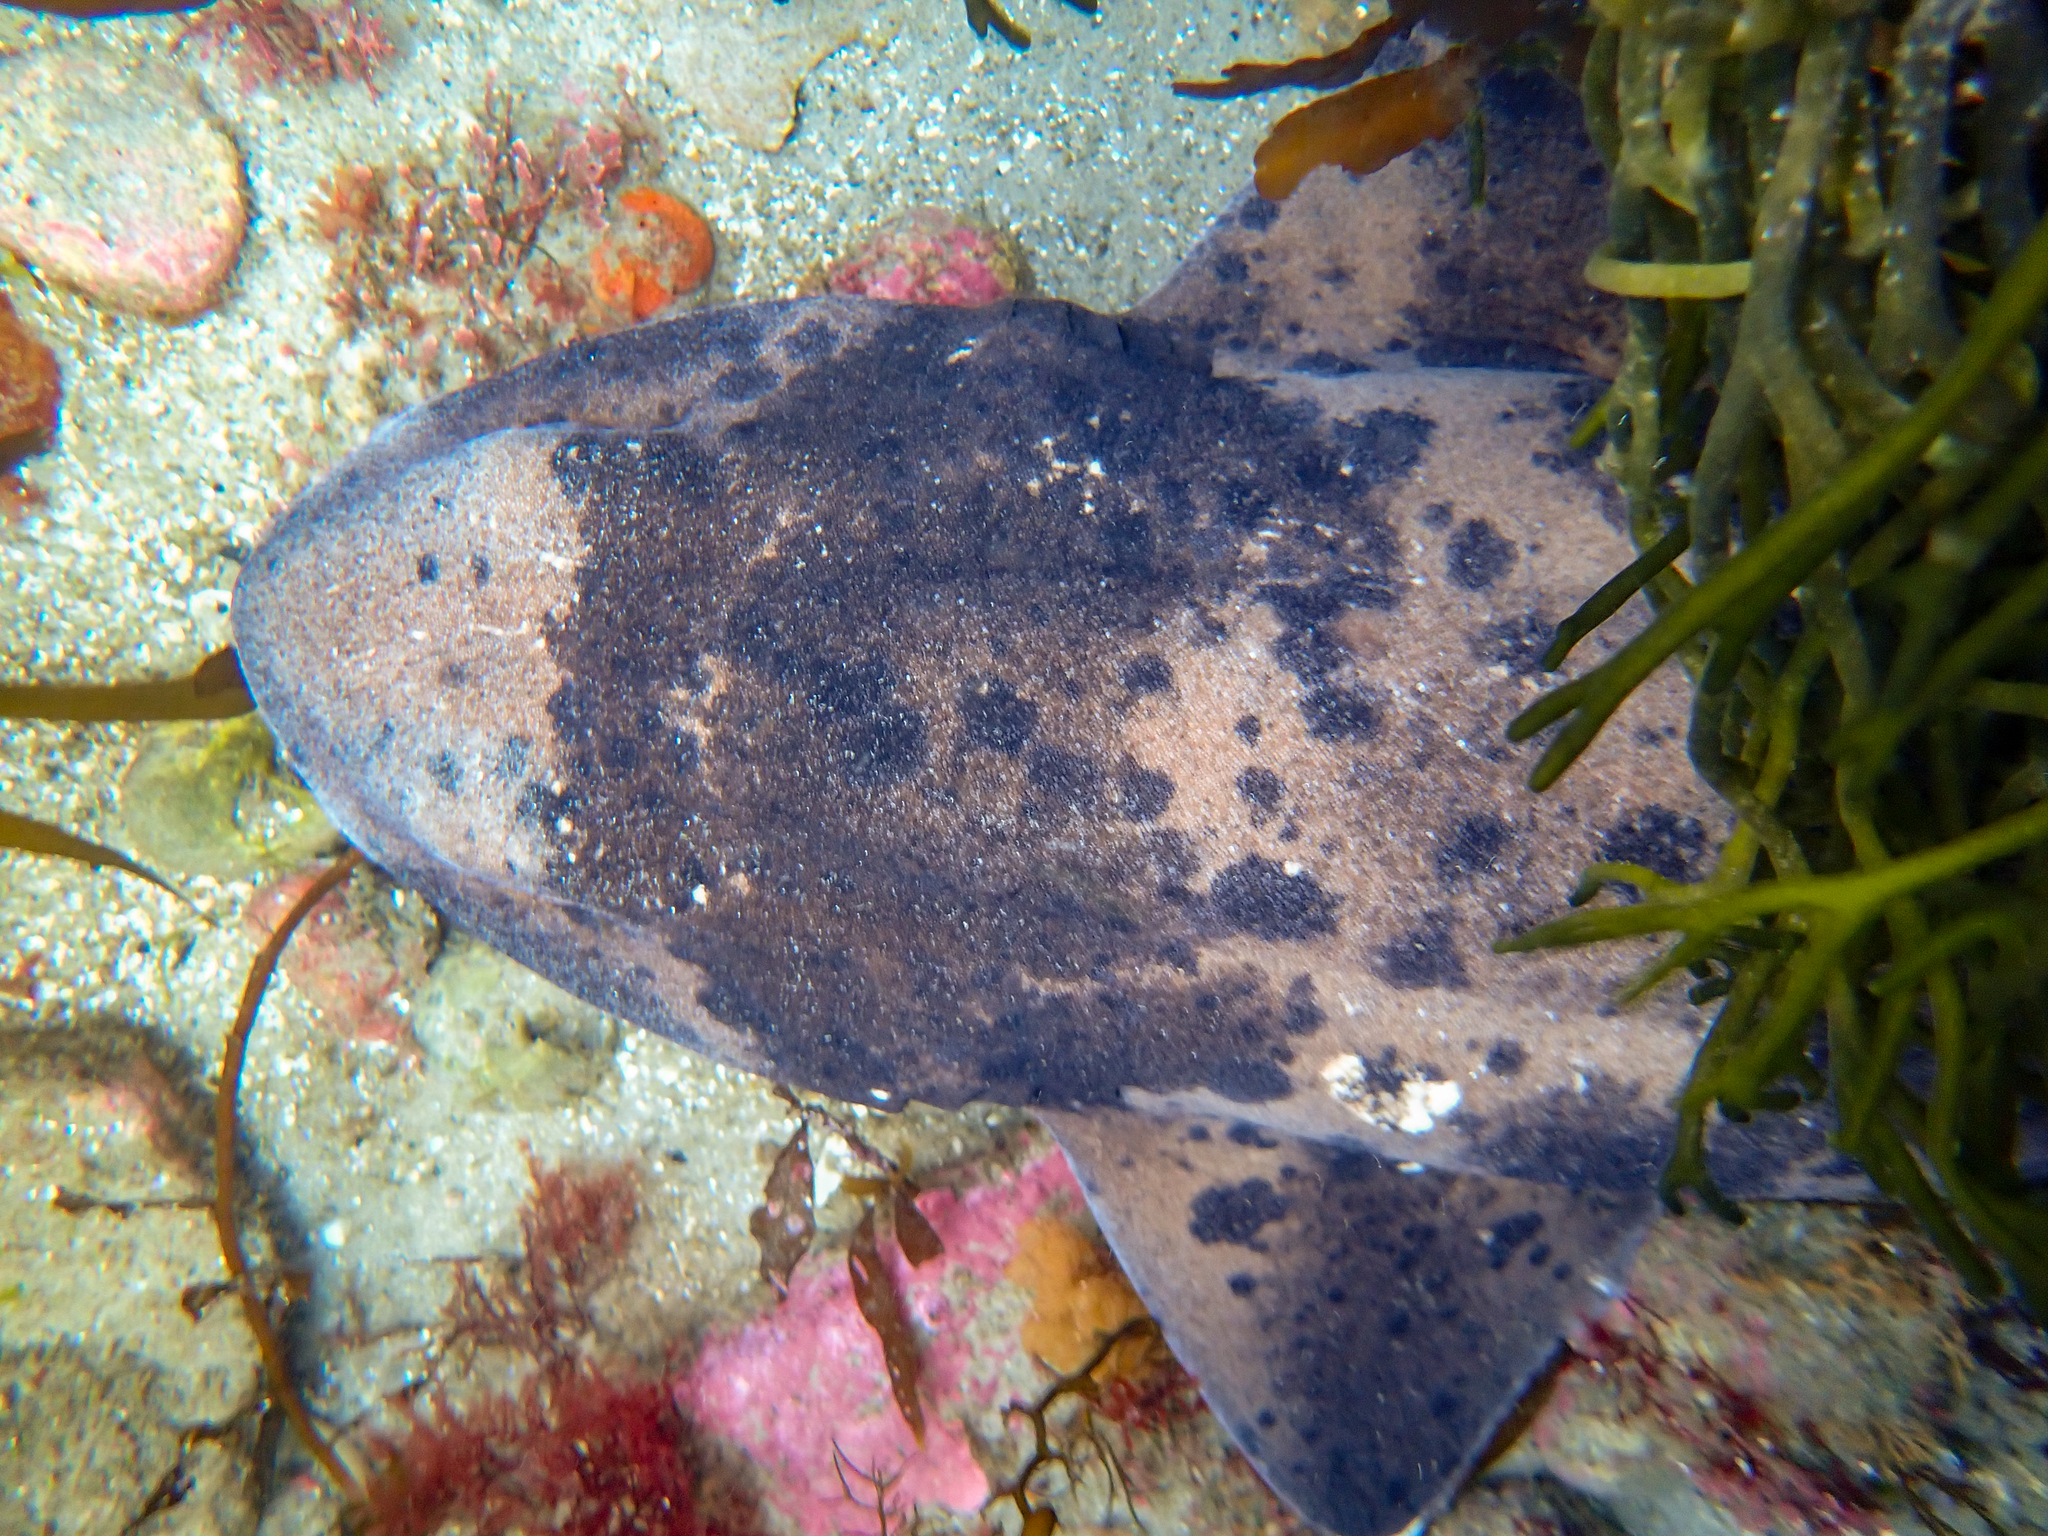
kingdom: Animalia
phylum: Chordata
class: Elasmobranchii
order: Carcharhiniformes
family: Scyliorhinidae
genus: Cephaloscyllium
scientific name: Cephaloscyllium laticeps
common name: Australian swellshark
